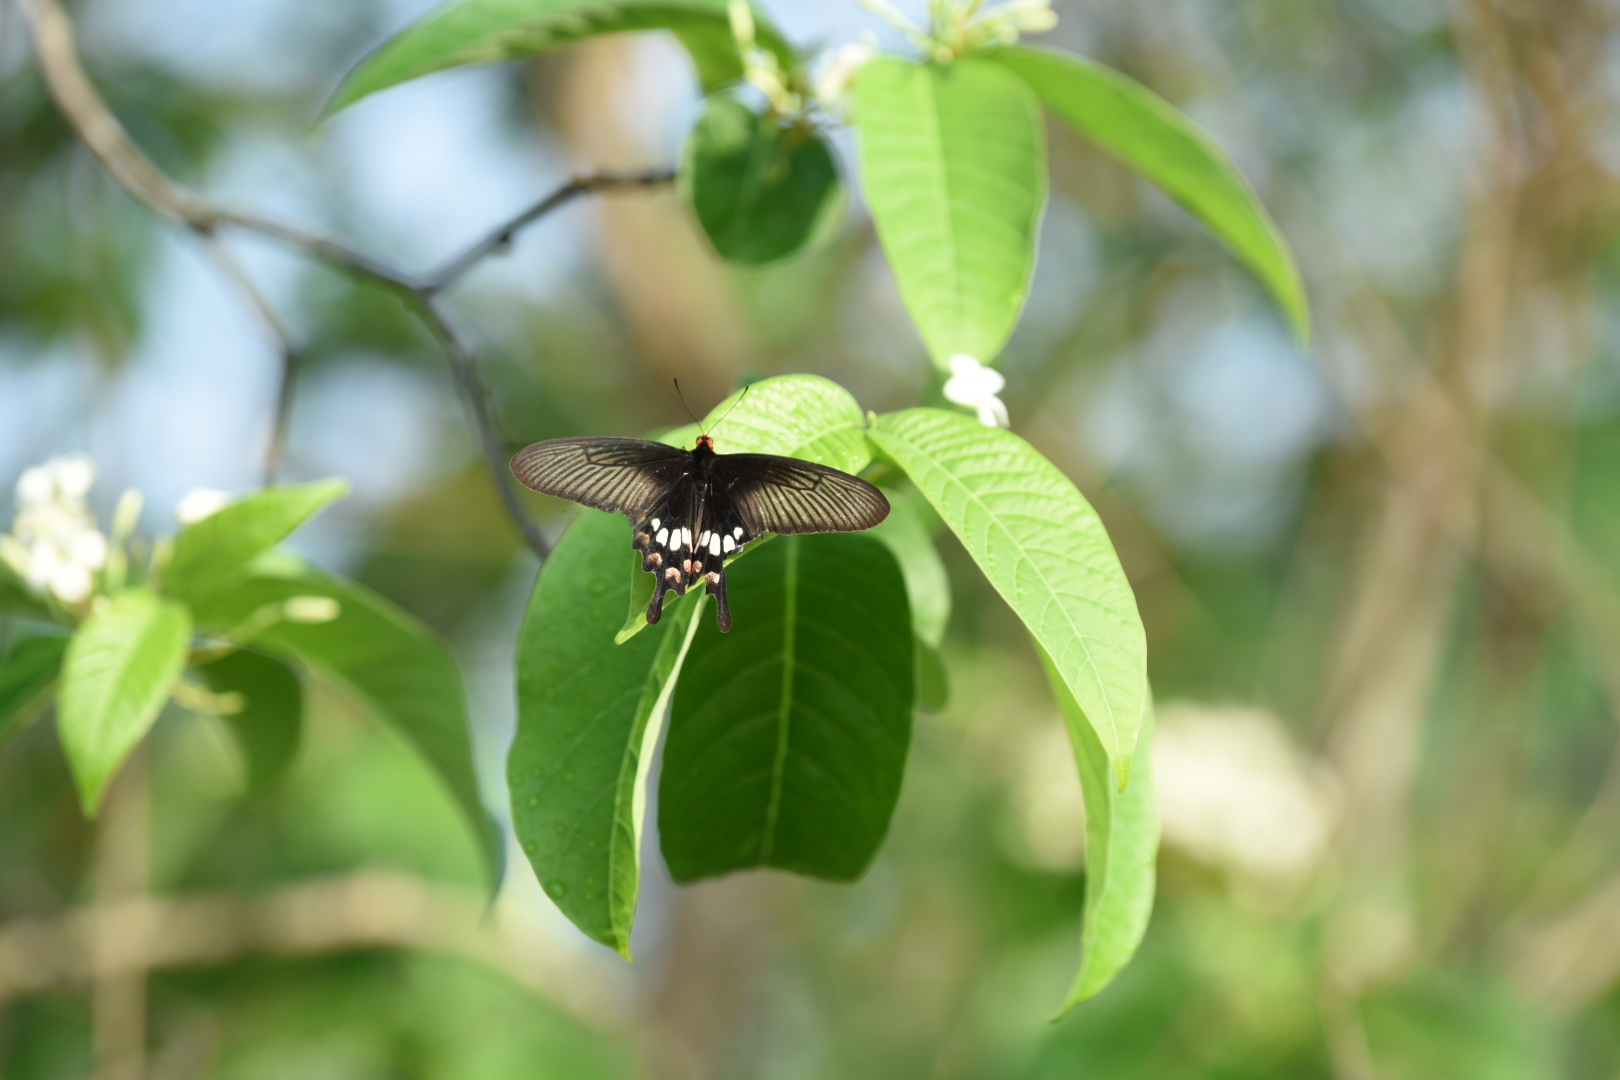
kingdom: Animalia
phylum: Arthropoda
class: Insecta
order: Lepidoptera
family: Papilionidae
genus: Pachliopta
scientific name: Pachliopta aristolochiae
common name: Common rose
